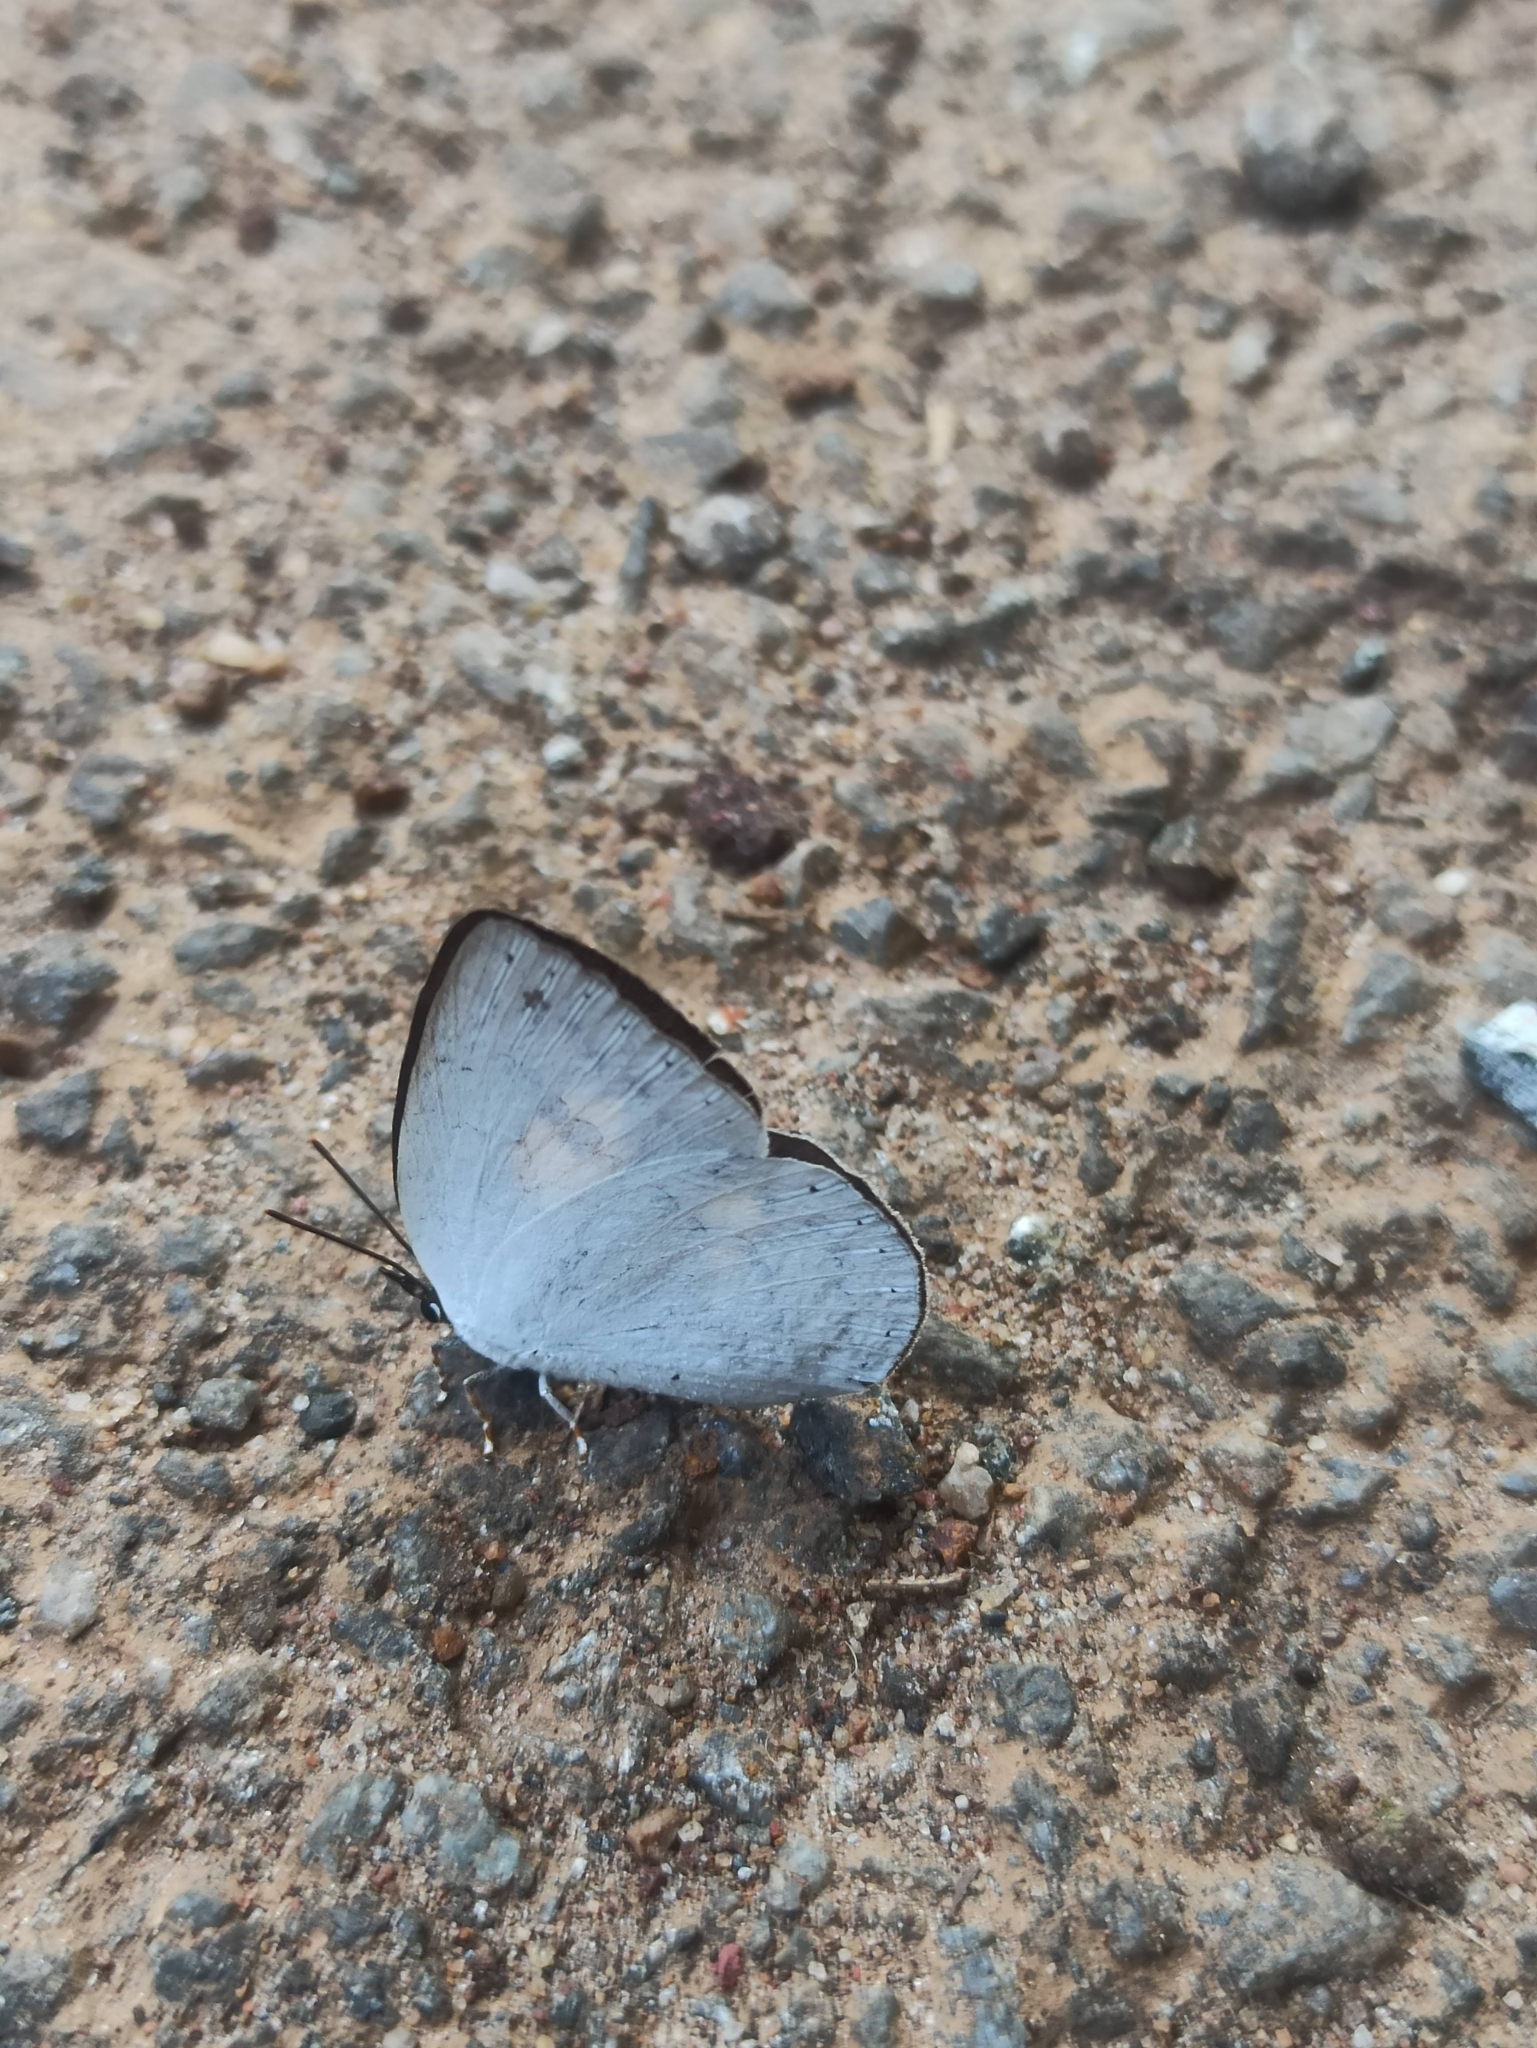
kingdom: Animalia
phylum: Arthropoda
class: Insecta
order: Lepidoptera
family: Lycaenidae
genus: Curetis
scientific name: Curetis thetis
